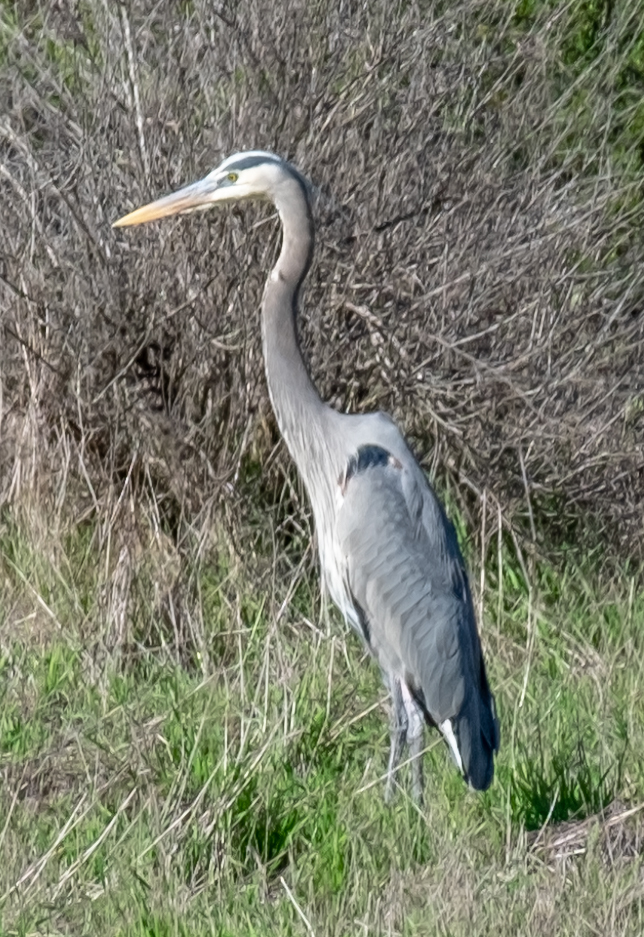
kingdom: Animalia
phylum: Chordata
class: Aves
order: Pelecaniformes
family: Ardeidae
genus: Ardea
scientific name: Ardea herodias
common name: Great blue heron
